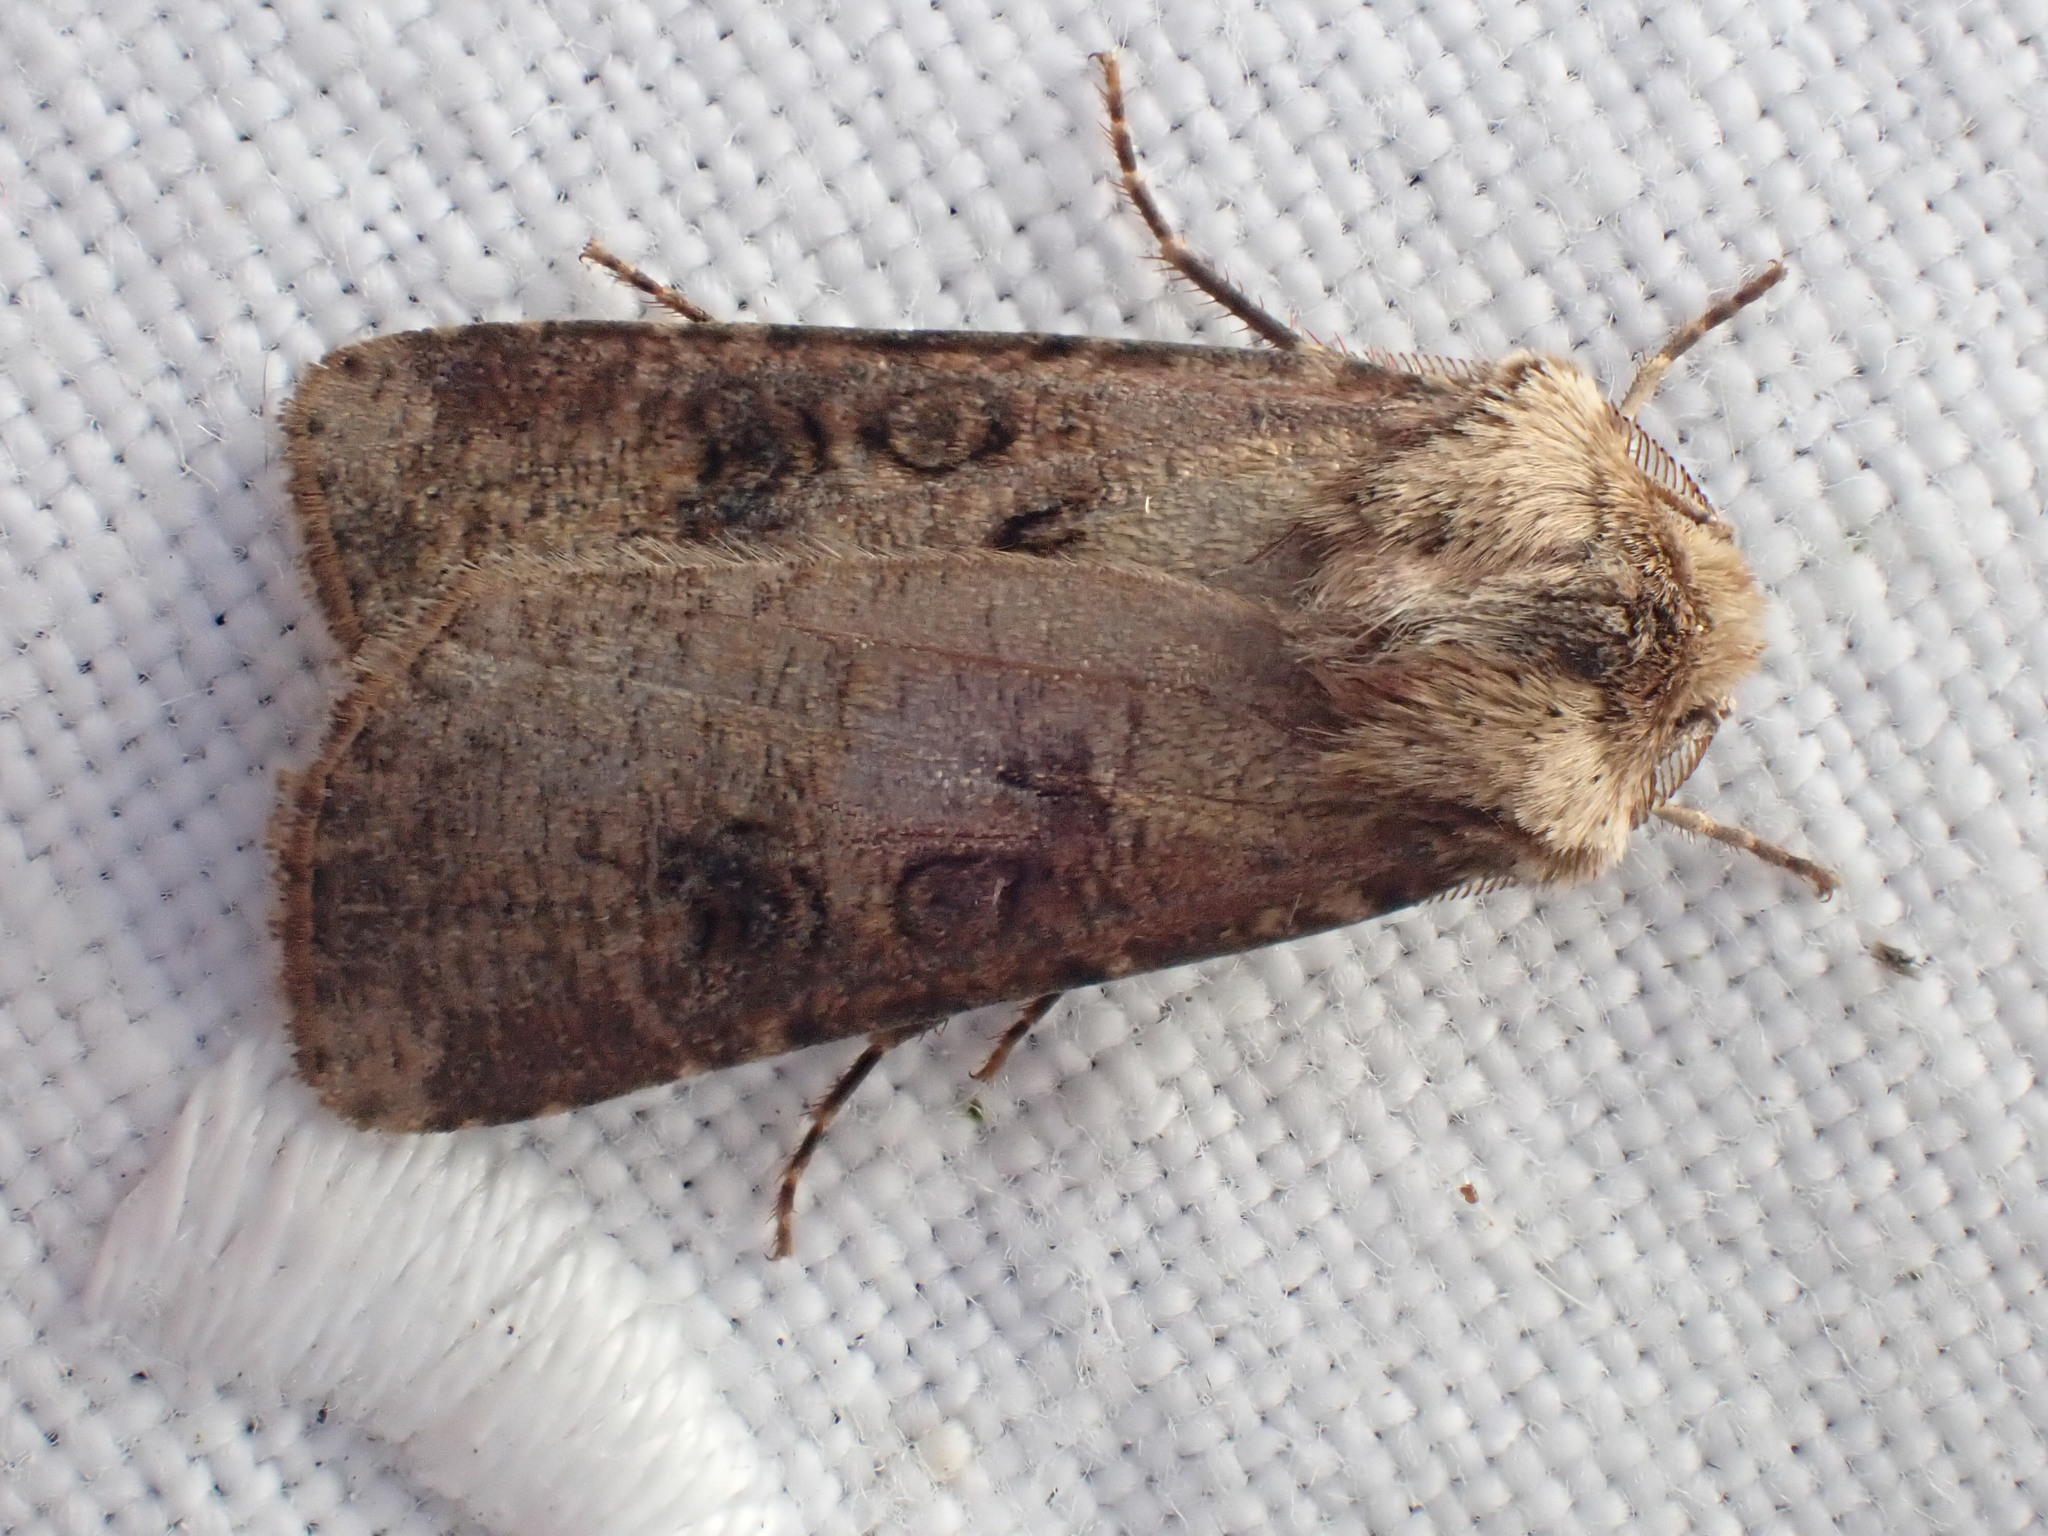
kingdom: Animalia
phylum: Arthropoda
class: Insecta
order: Lepidoptera
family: Noctuidae
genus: Agrotis
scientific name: Agrotis clavis
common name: Heart and club
